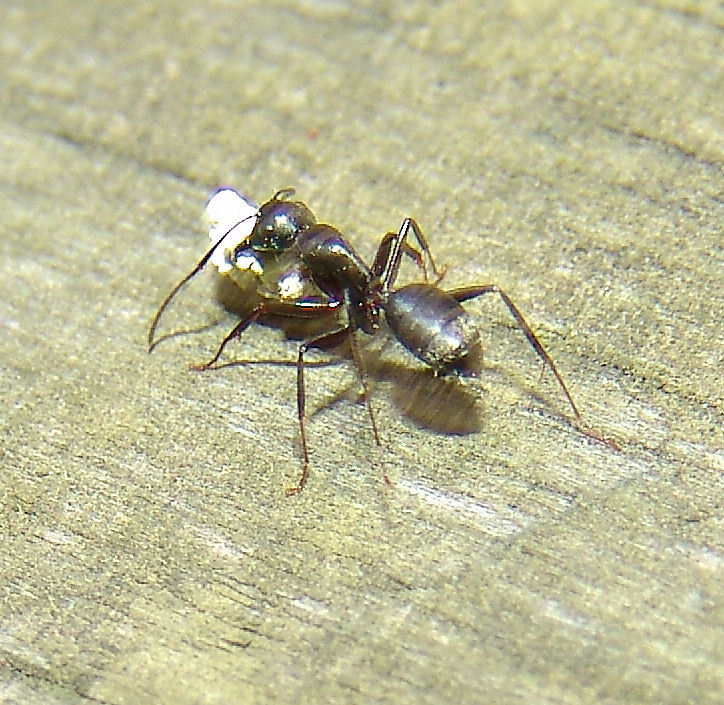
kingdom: Animalia
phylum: Arthropoda
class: Insecta
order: Hymenoptera
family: Formicidae
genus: Camponotus
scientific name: Camponotus pennsylvanicus
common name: Black carpenter ant
